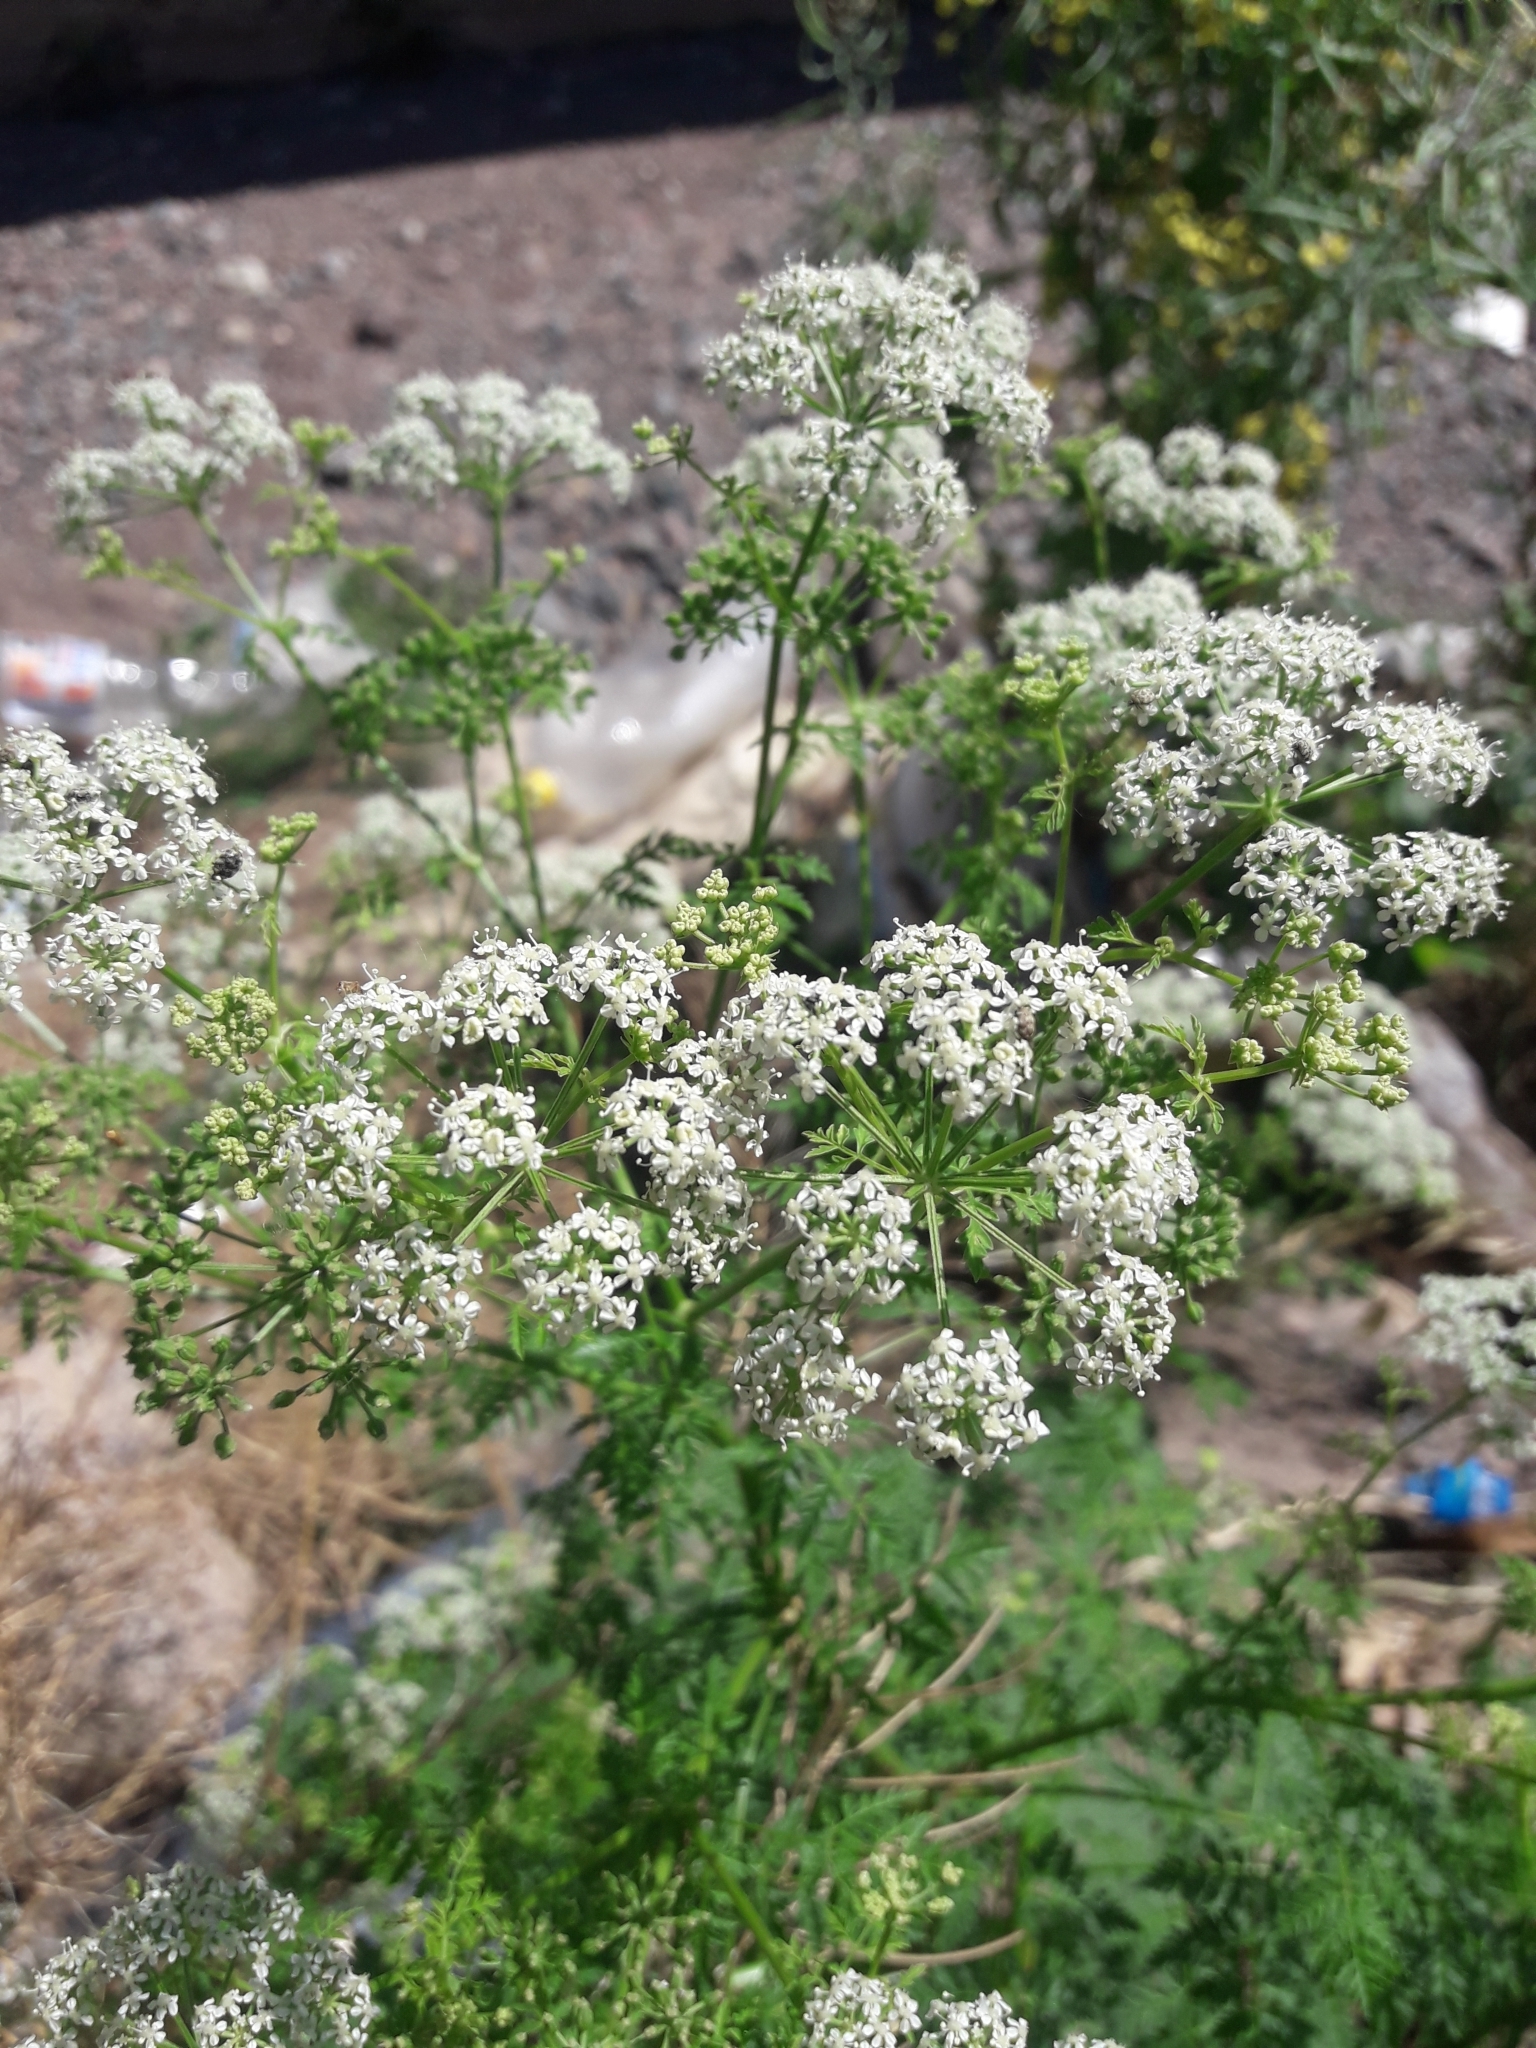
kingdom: Plantae
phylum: Tracheophyta
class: Magnoliopsida
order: Apiales
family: Apiaceae
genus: Conium
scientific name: Conium maculatum
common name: Hemlock
